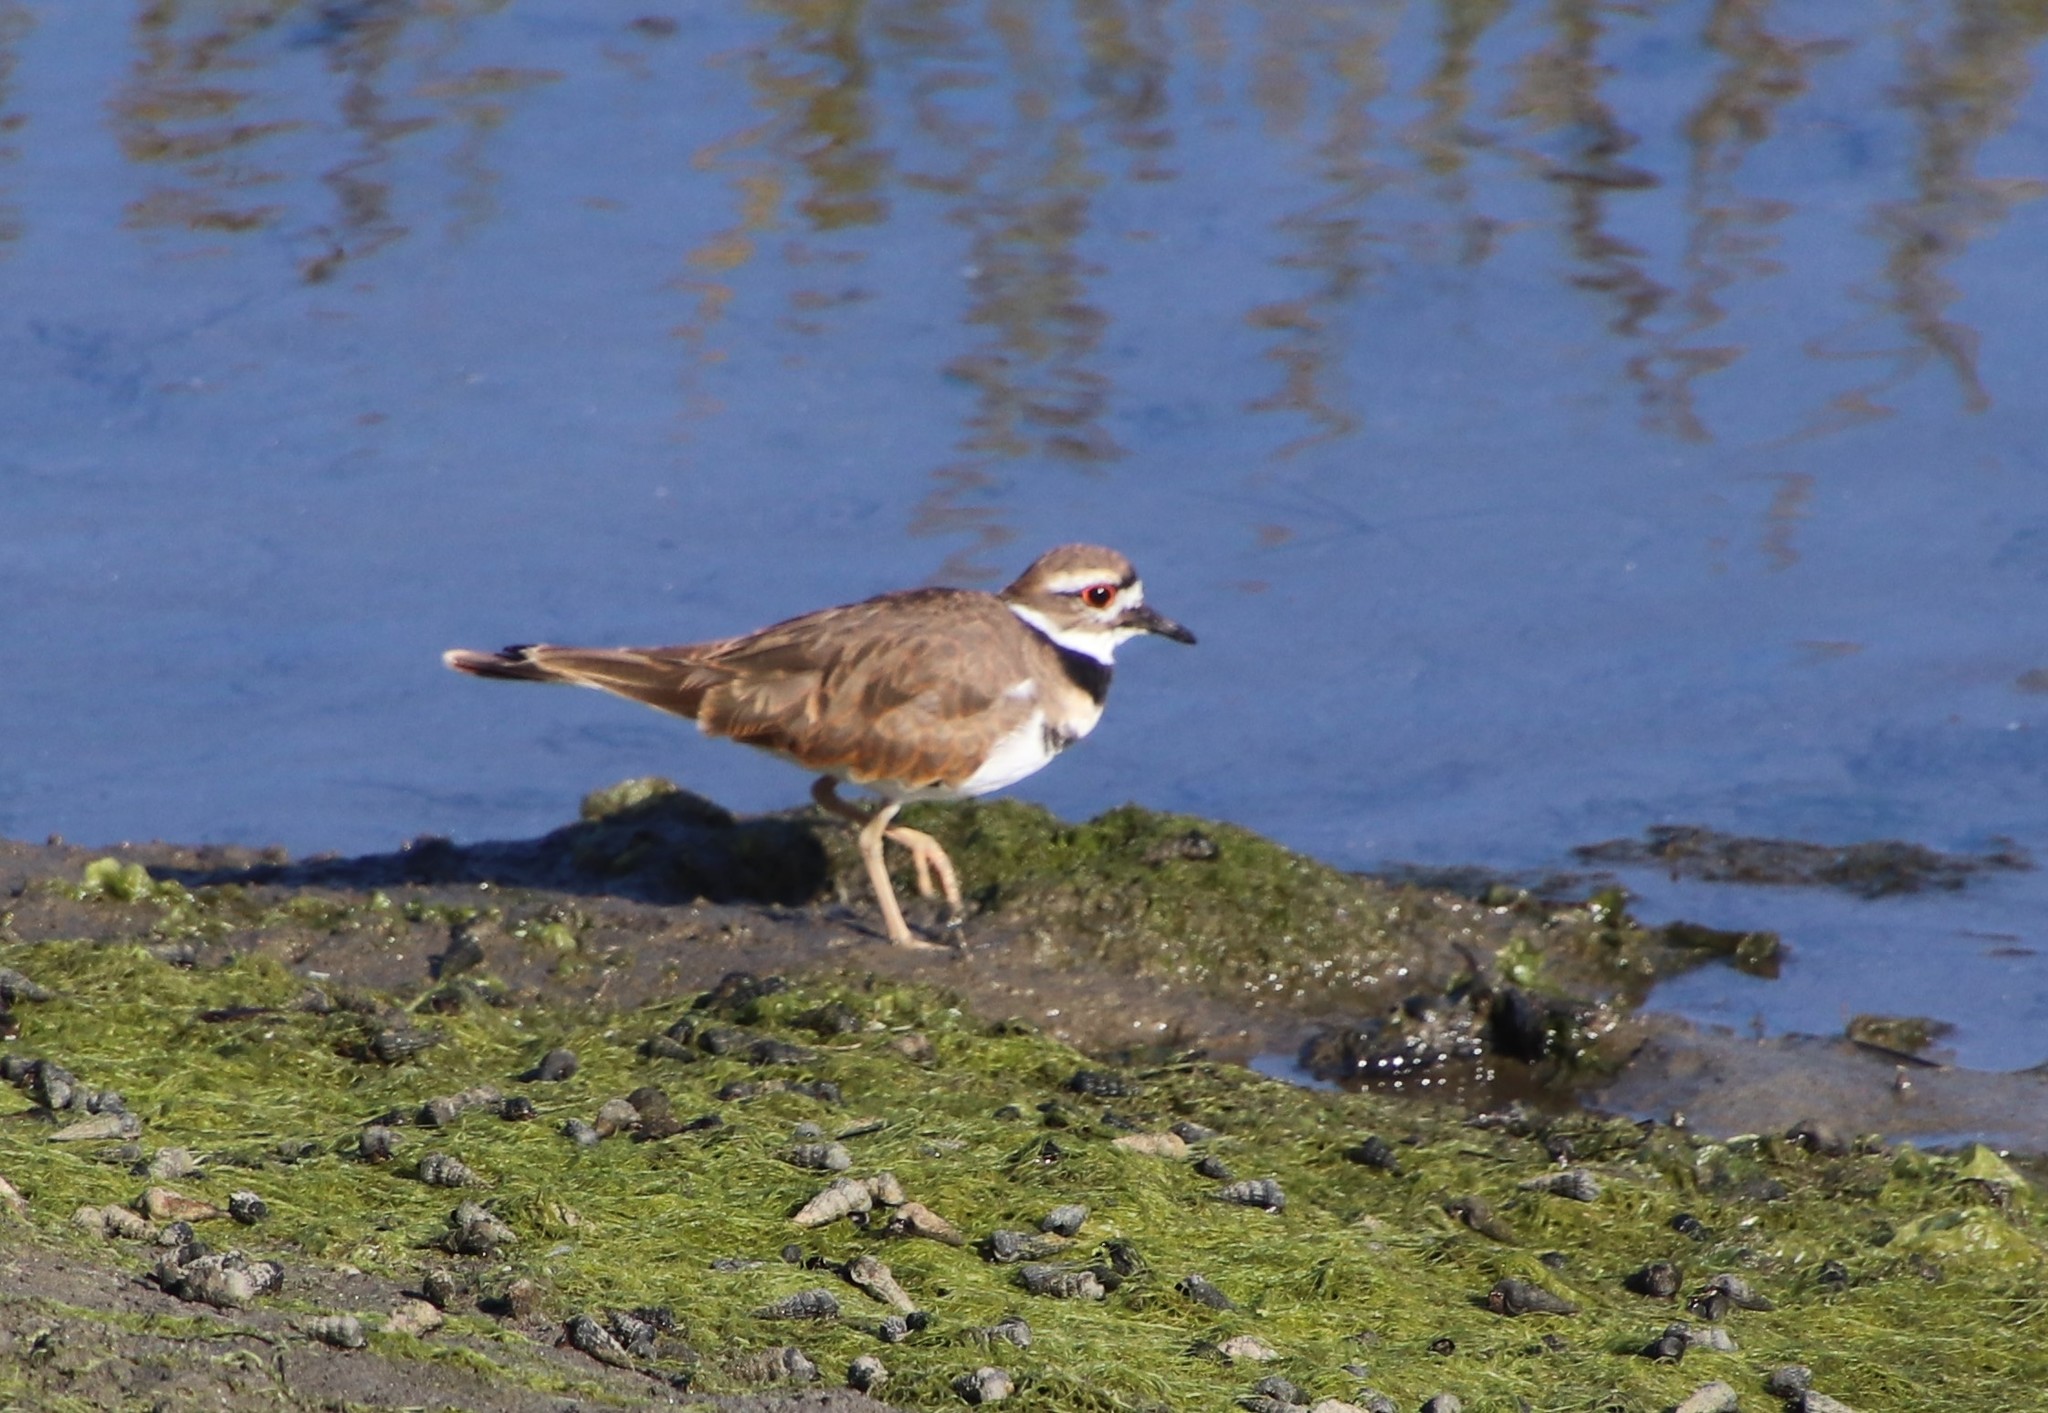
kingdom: Animalia
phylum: Chordata
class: Aves
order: Charadriiformes
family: Charadriidae
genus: Charadrius
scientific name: Charadrius vociferus
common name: Killdeer
